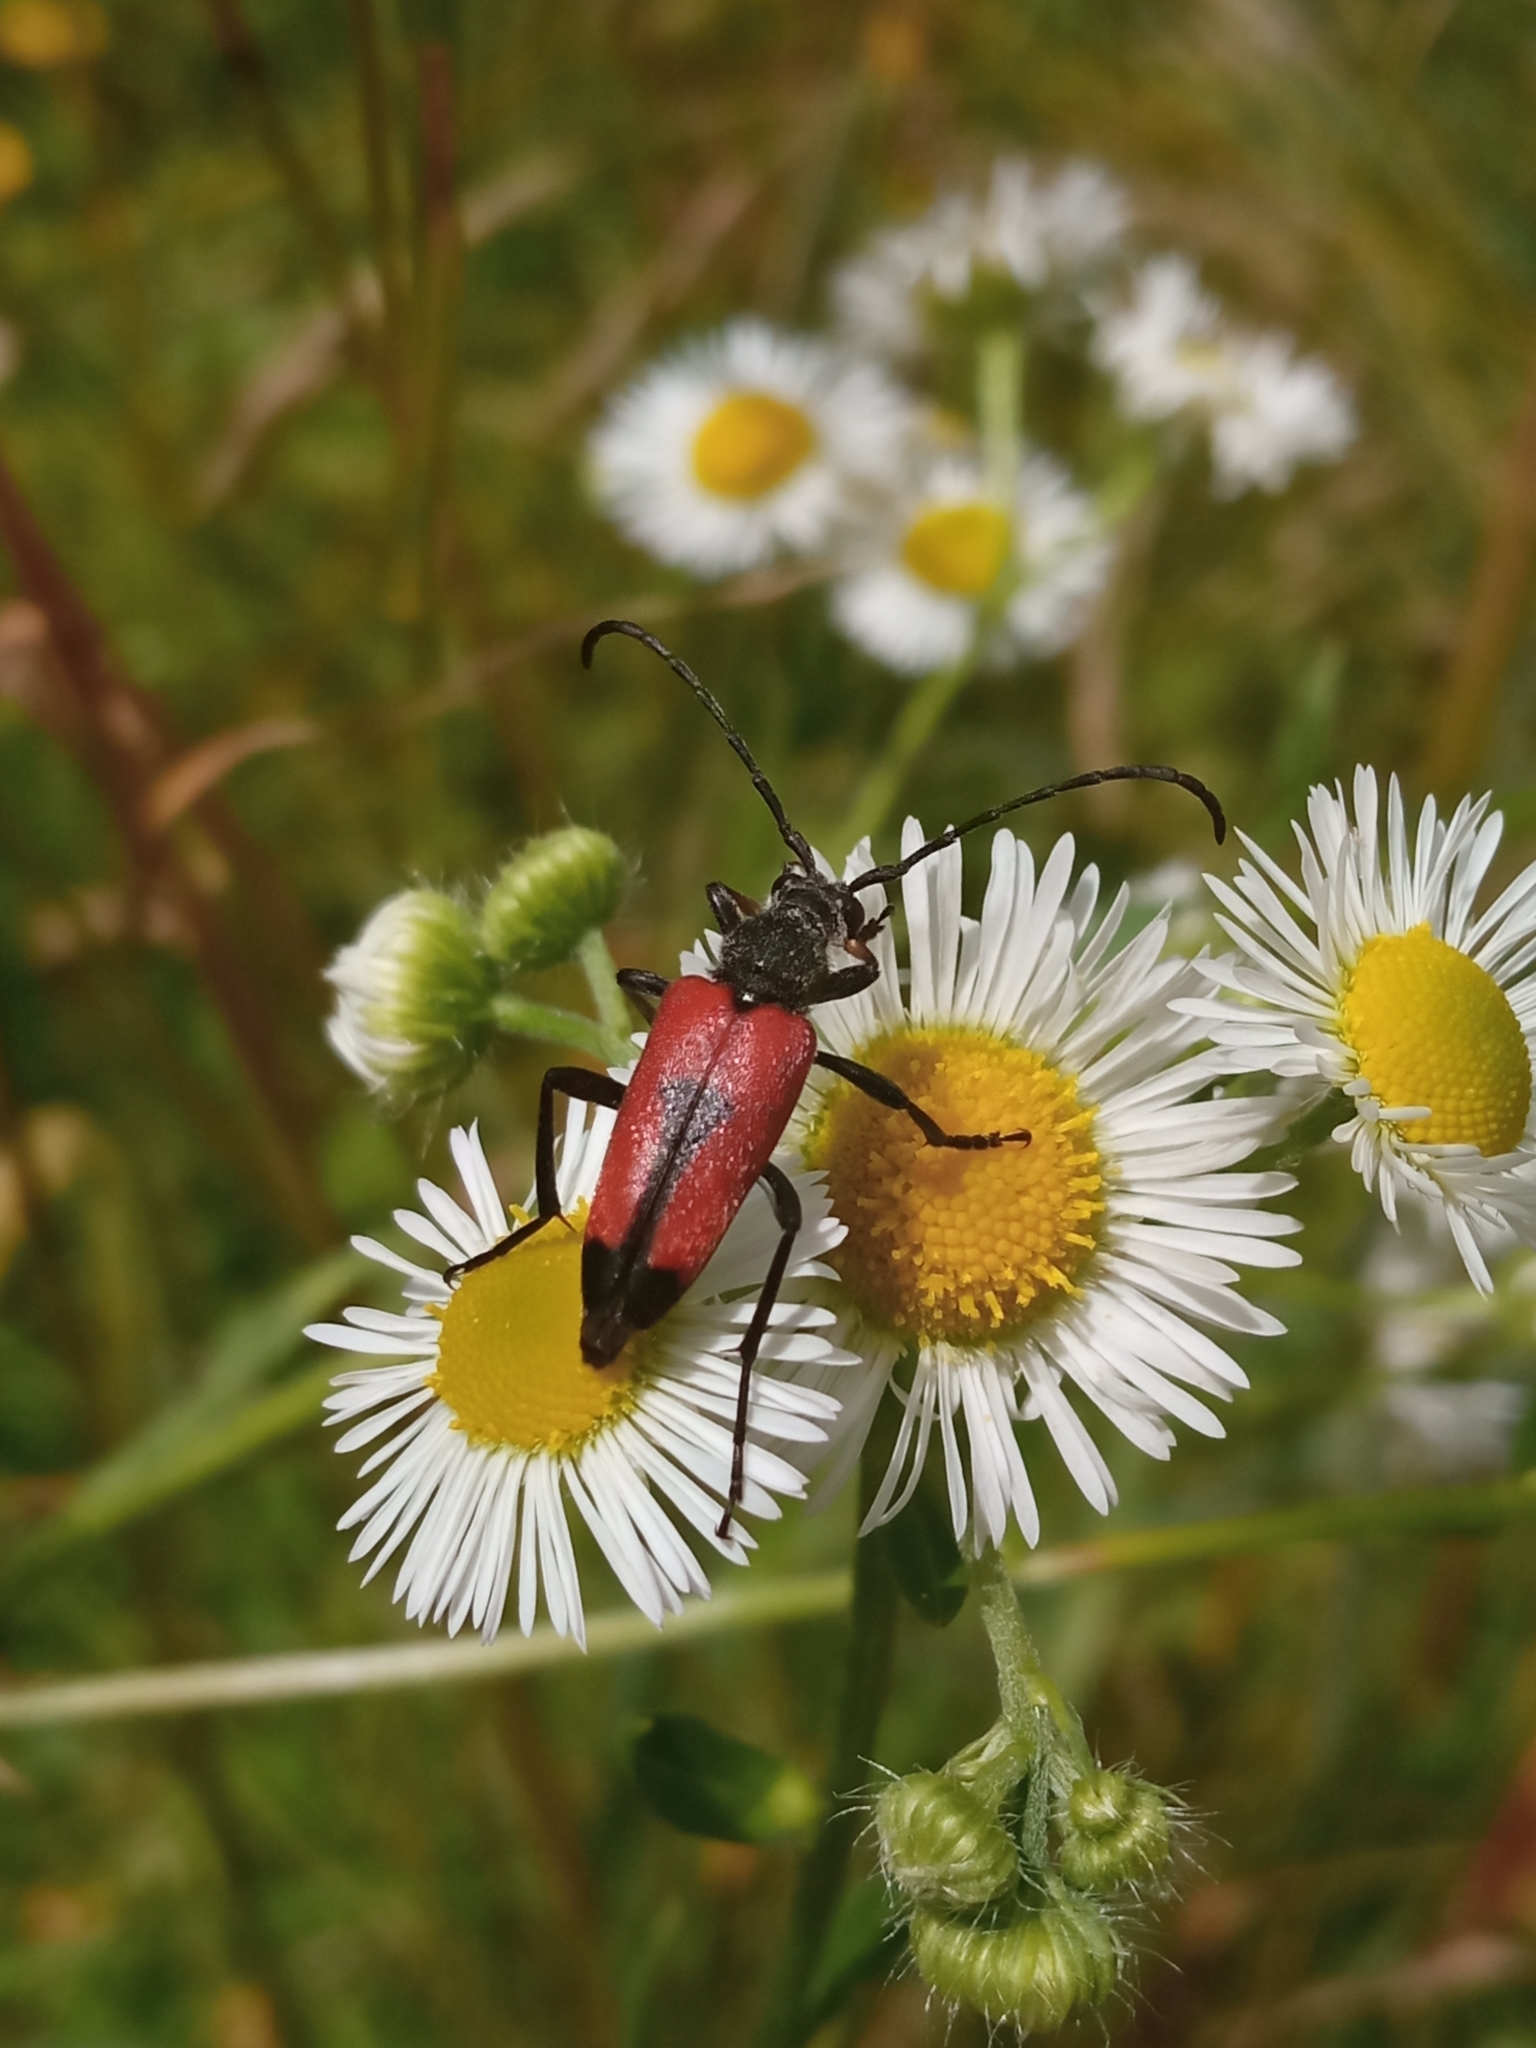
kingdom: Animalia
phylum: Arthropoda
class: Insecta
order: Coleoptera
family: Cerambycidae
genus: Stictoleptura
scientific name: Stictoleptura cordigera
